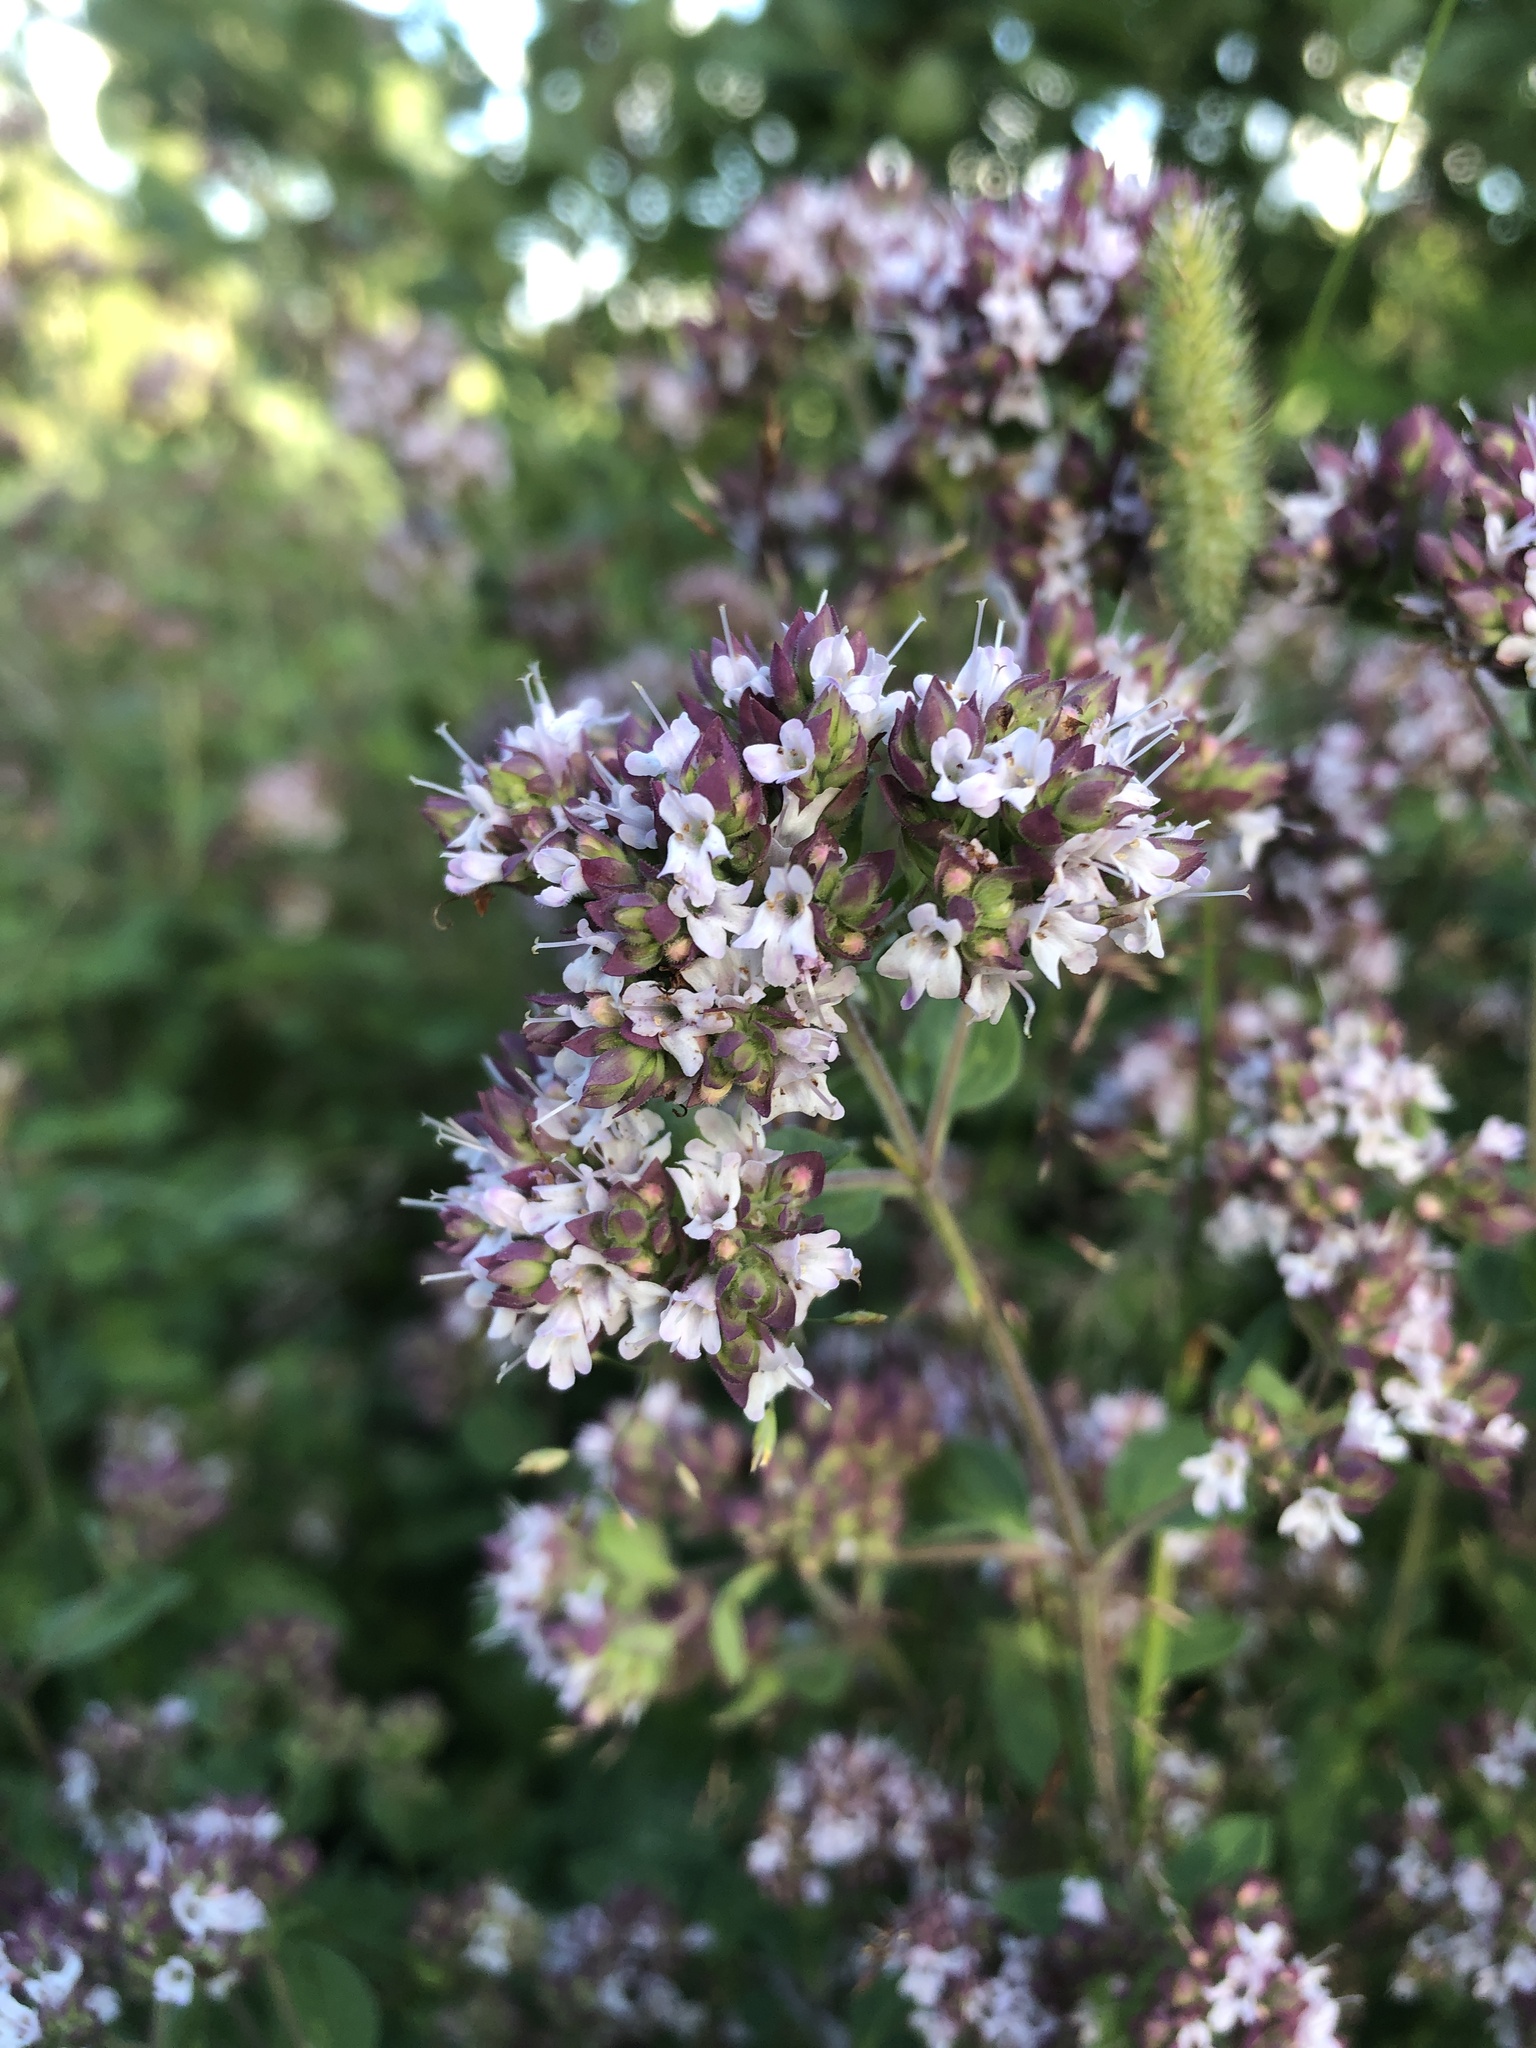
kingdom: Plantae
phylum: Tracheophyta
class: Magnoliopsida
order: Lamiales
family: Lamiaceae
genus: Origanum
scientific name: Origanum vulgare
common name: Wild marjoram
